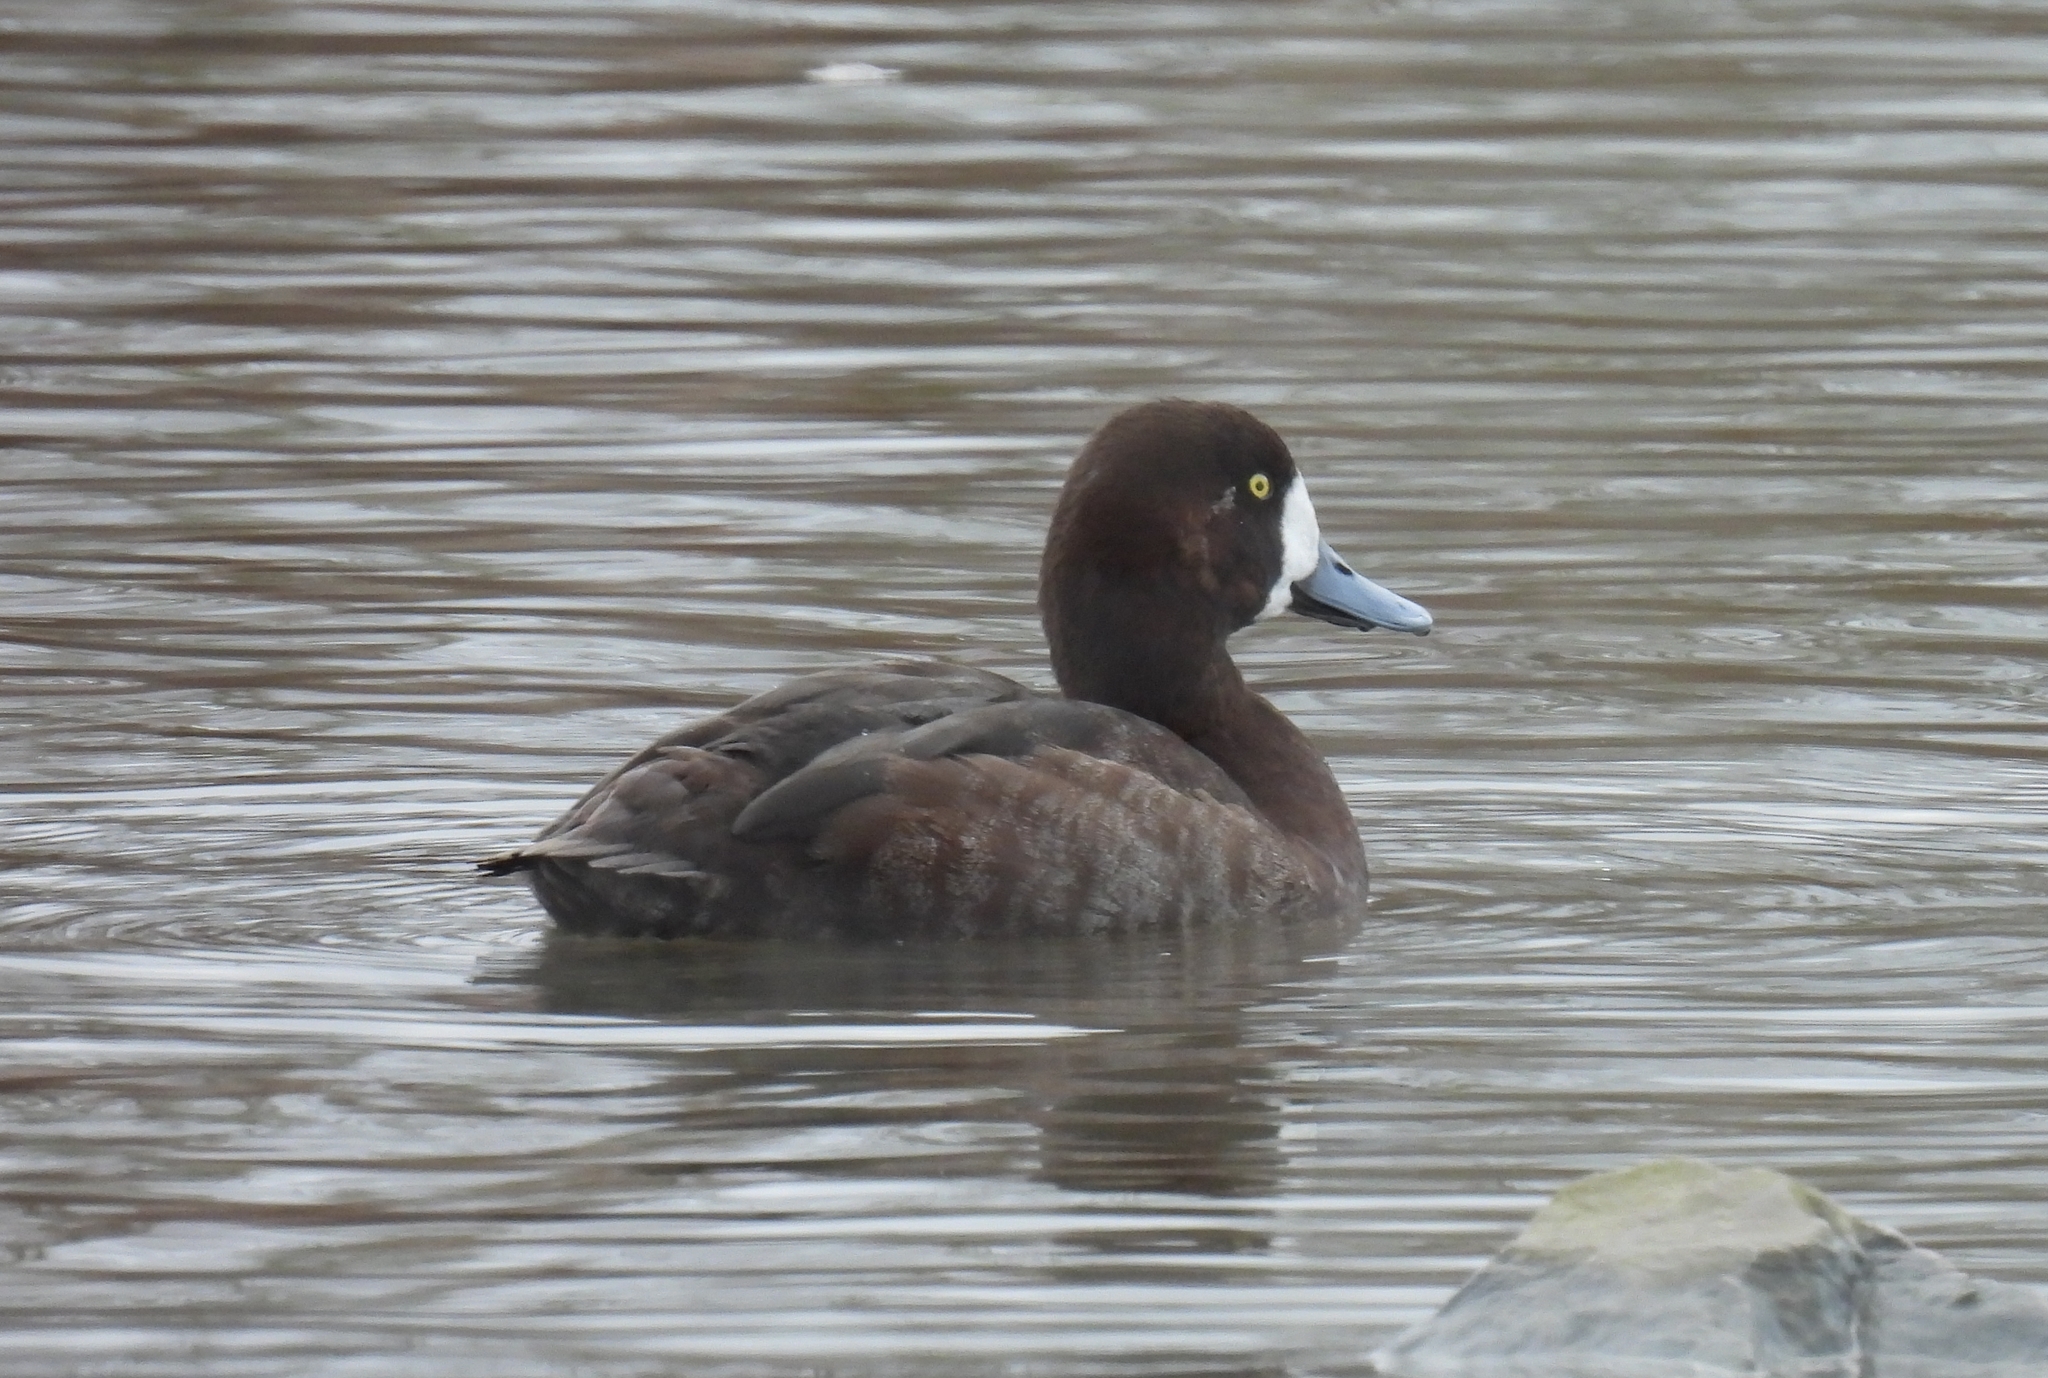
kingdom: Animalia
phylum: Chordata
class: Aves
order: Anseriformes
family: Anatidae
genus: Aythya
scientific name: Aythya marila
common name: Greater scaup
